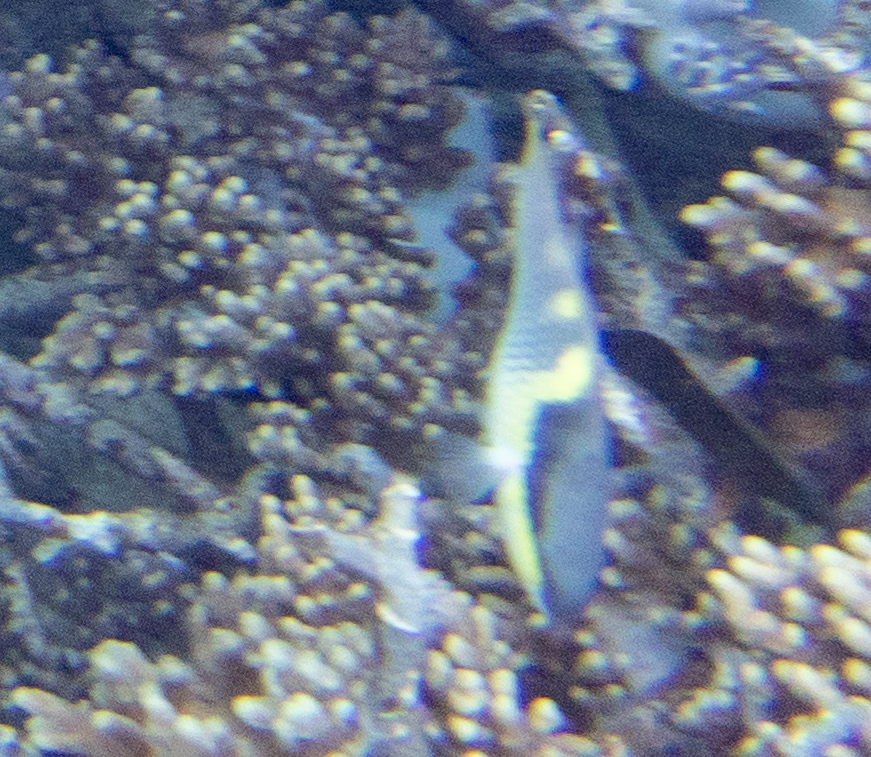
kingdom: Animalia
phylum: Chordata
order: Perciformes
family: Scaridae
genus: Scarus
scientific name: Scarus oviceps
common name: Blue parrotfish
